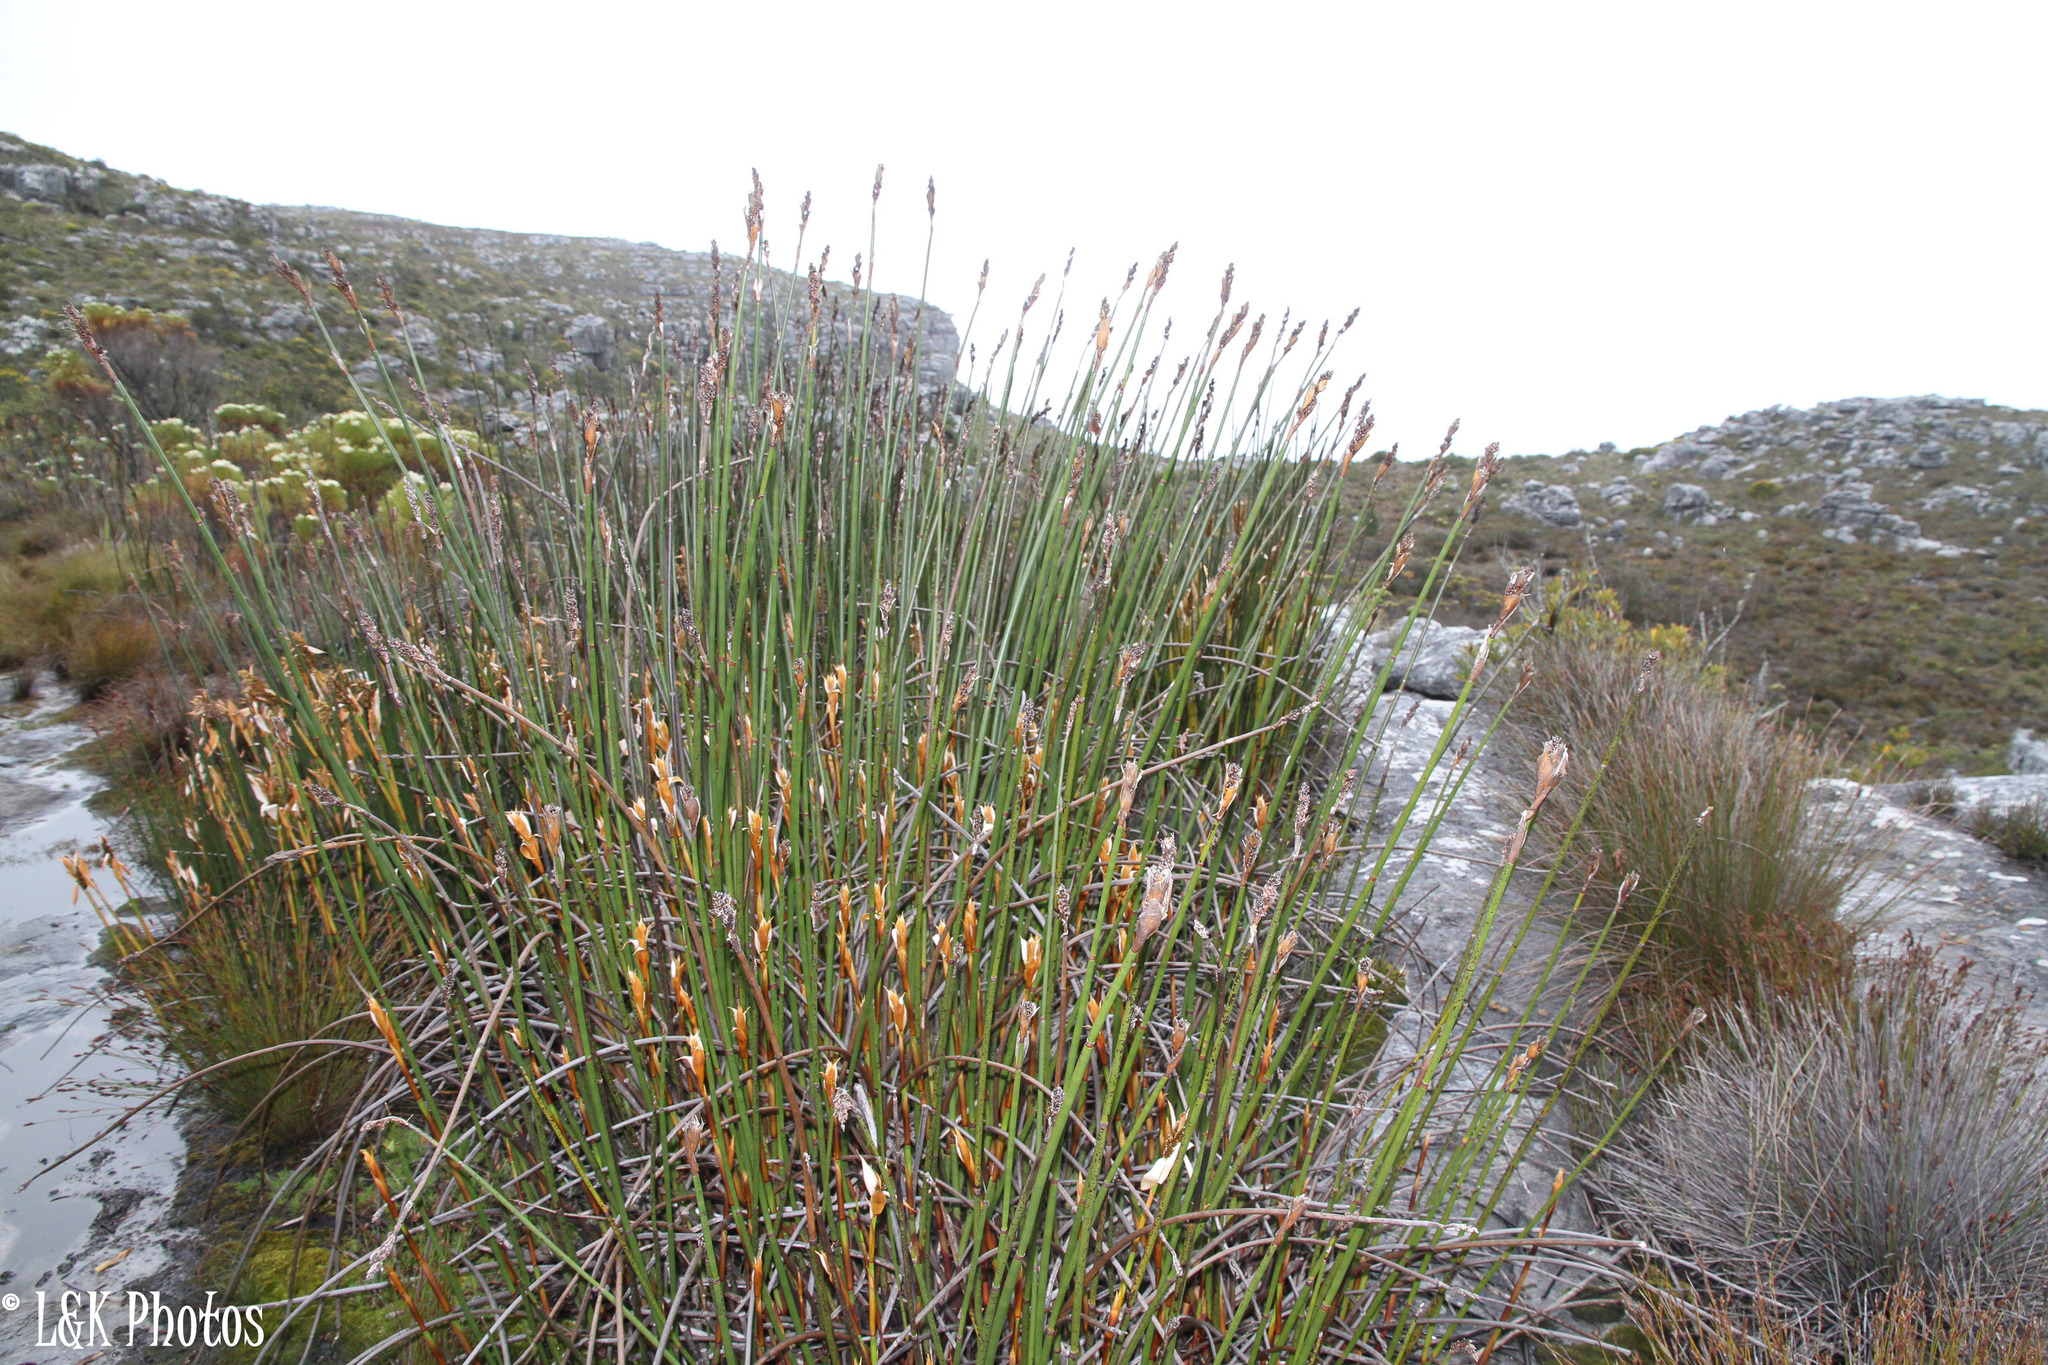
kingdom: Plantae
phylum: Tracheophyta
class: Liliopsida
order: Poales
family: Restionaceae
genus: Elegia
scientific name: Elegia mucronata
